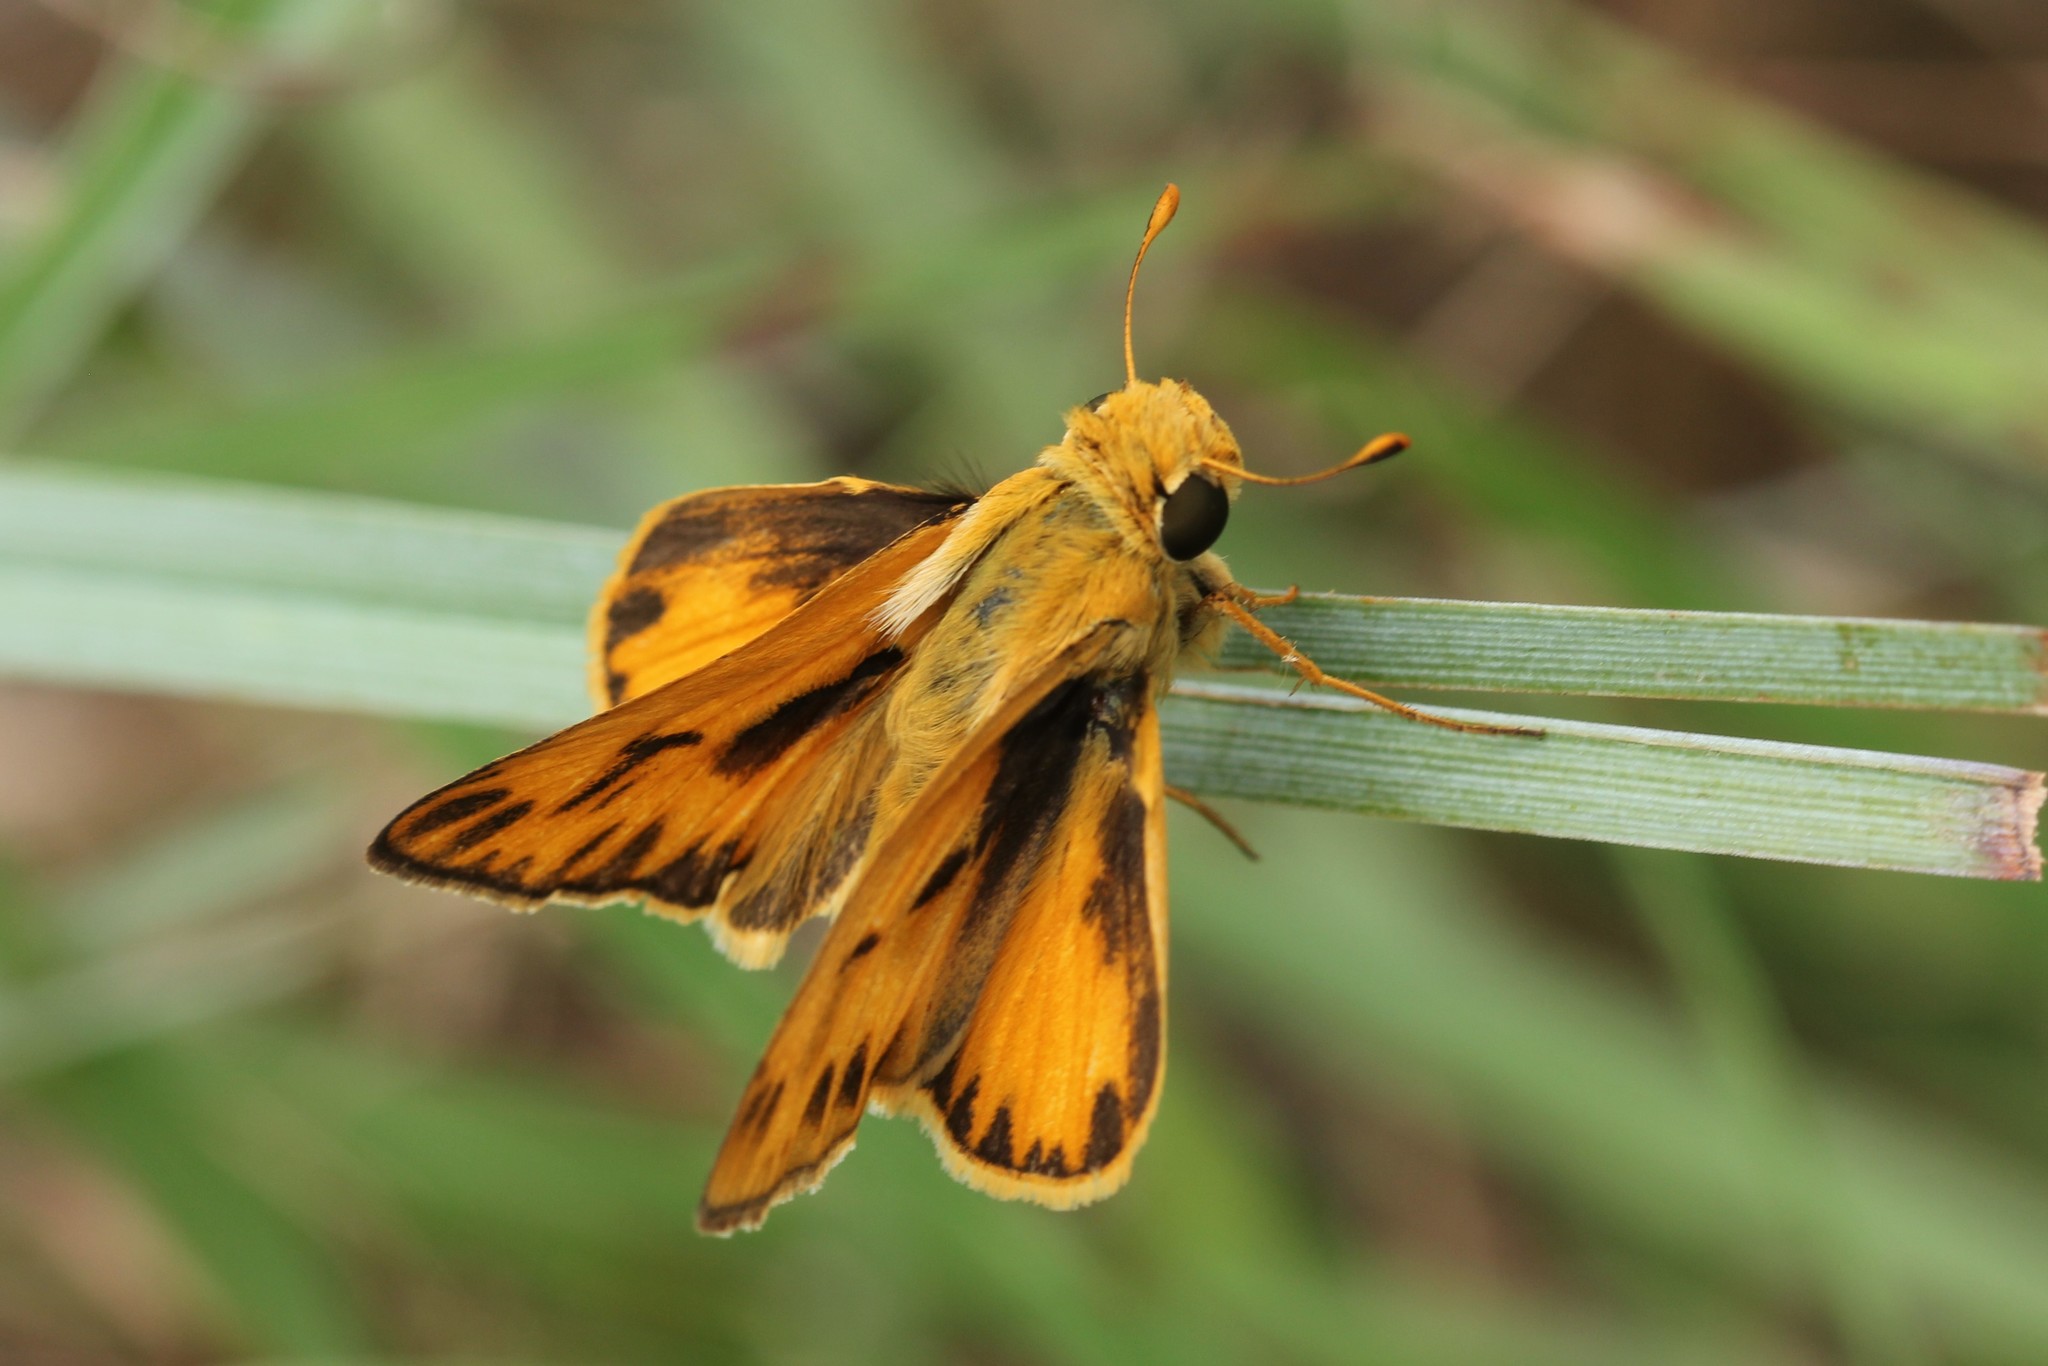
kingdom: Animalia
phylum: Arthropoda
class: Insecta
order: Lepidoptera
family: Hesperiidae
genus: Hylephila
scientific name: Hylephila phyleus
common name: Fiery skipper
